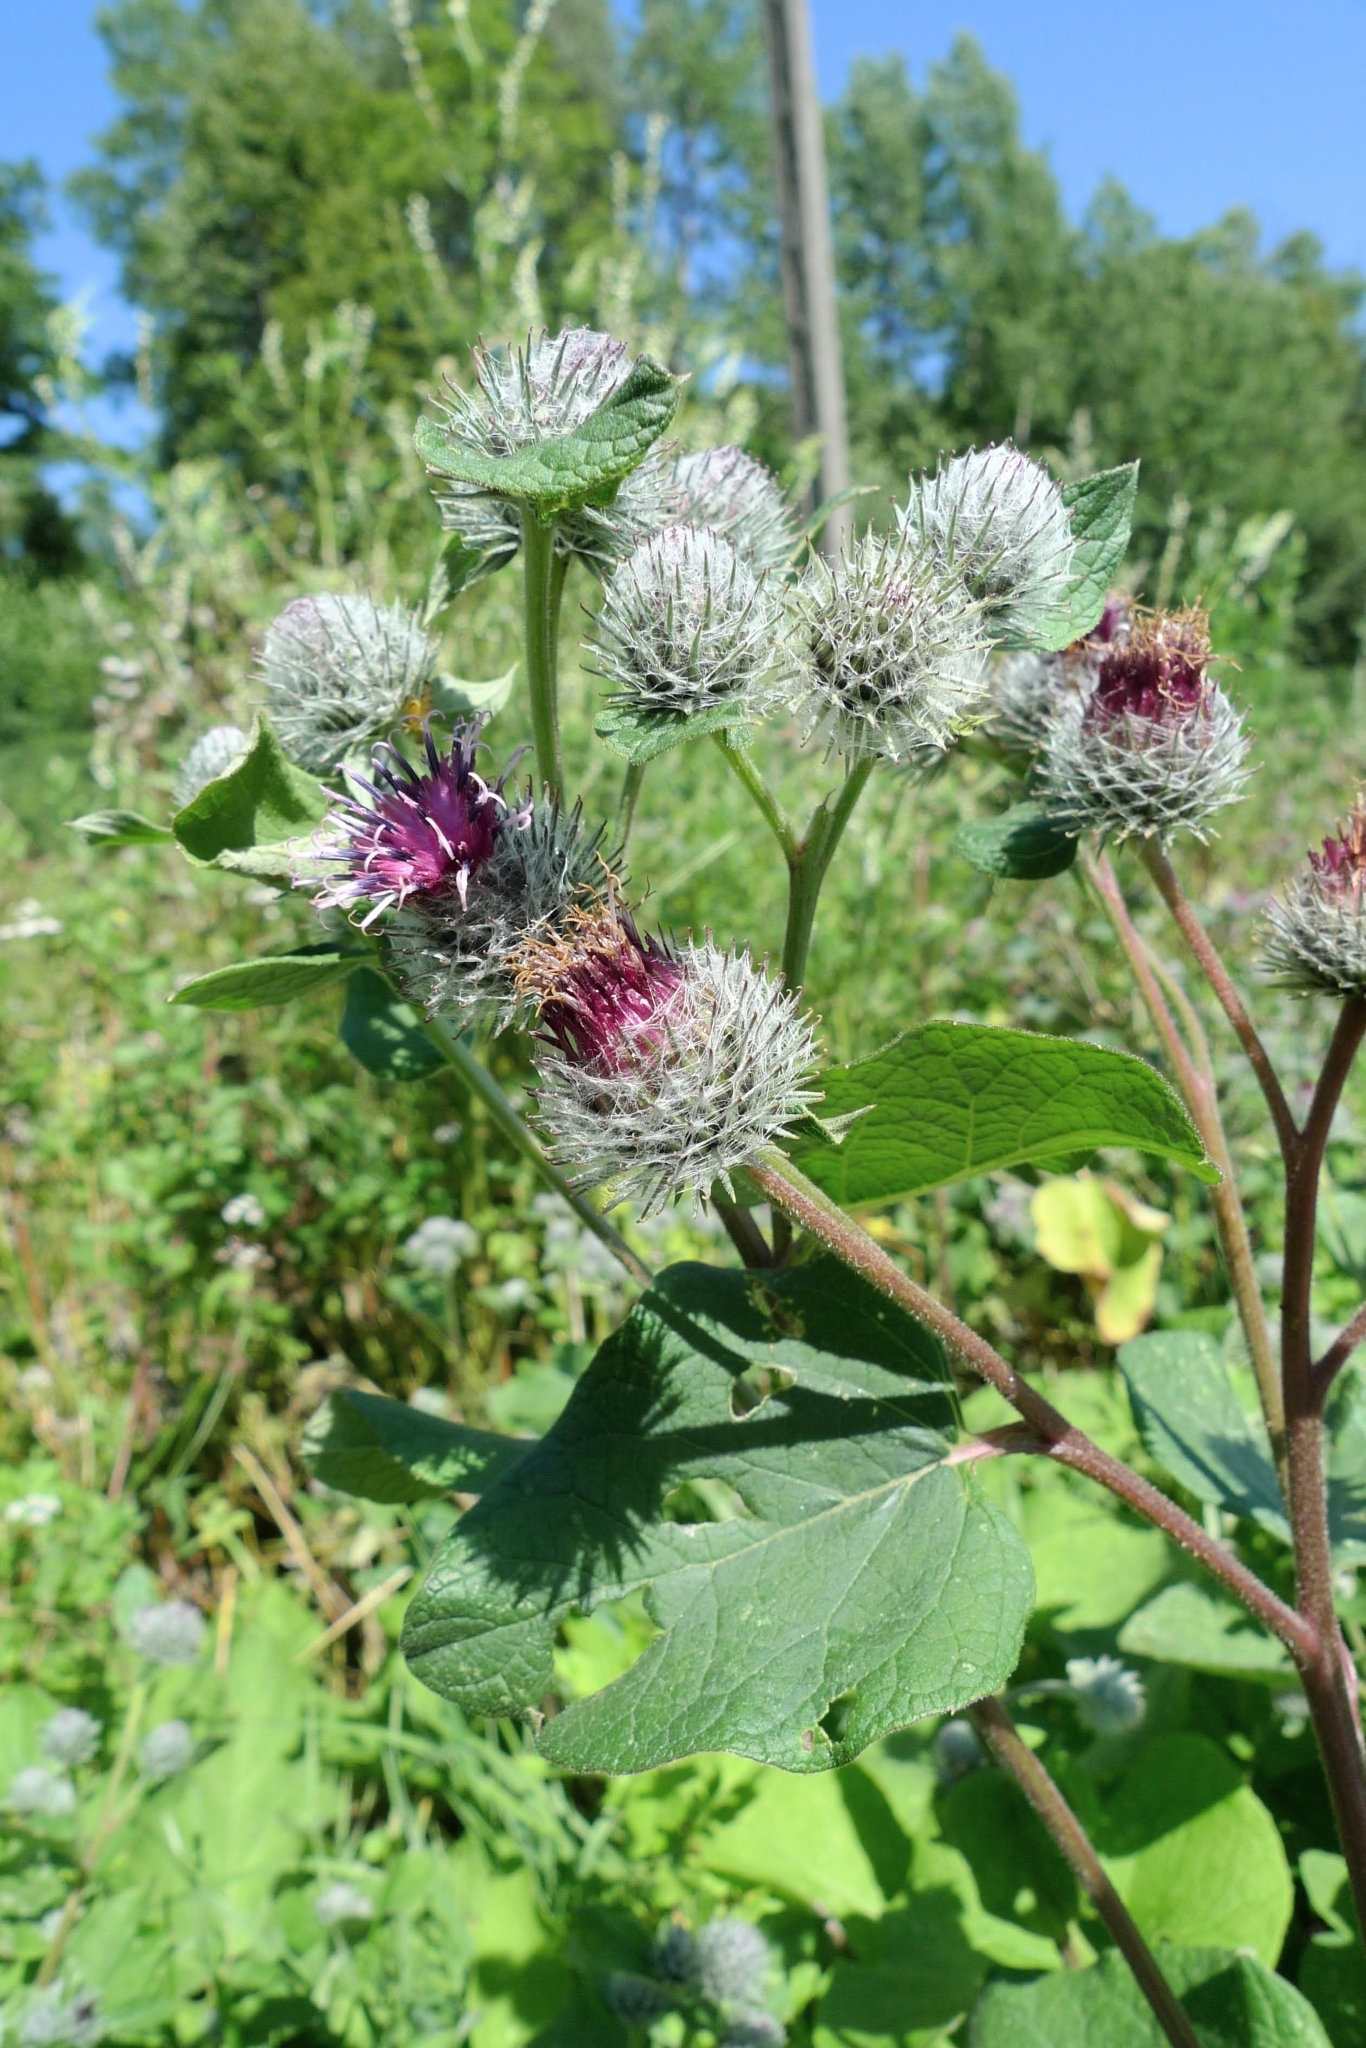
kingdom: Plantae
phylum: Tracheophyta
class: Magnoliopsida
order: Asterales
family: Asteraceae
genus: Arctium
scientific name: Arctium tomentosum
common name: Woolly burdock
